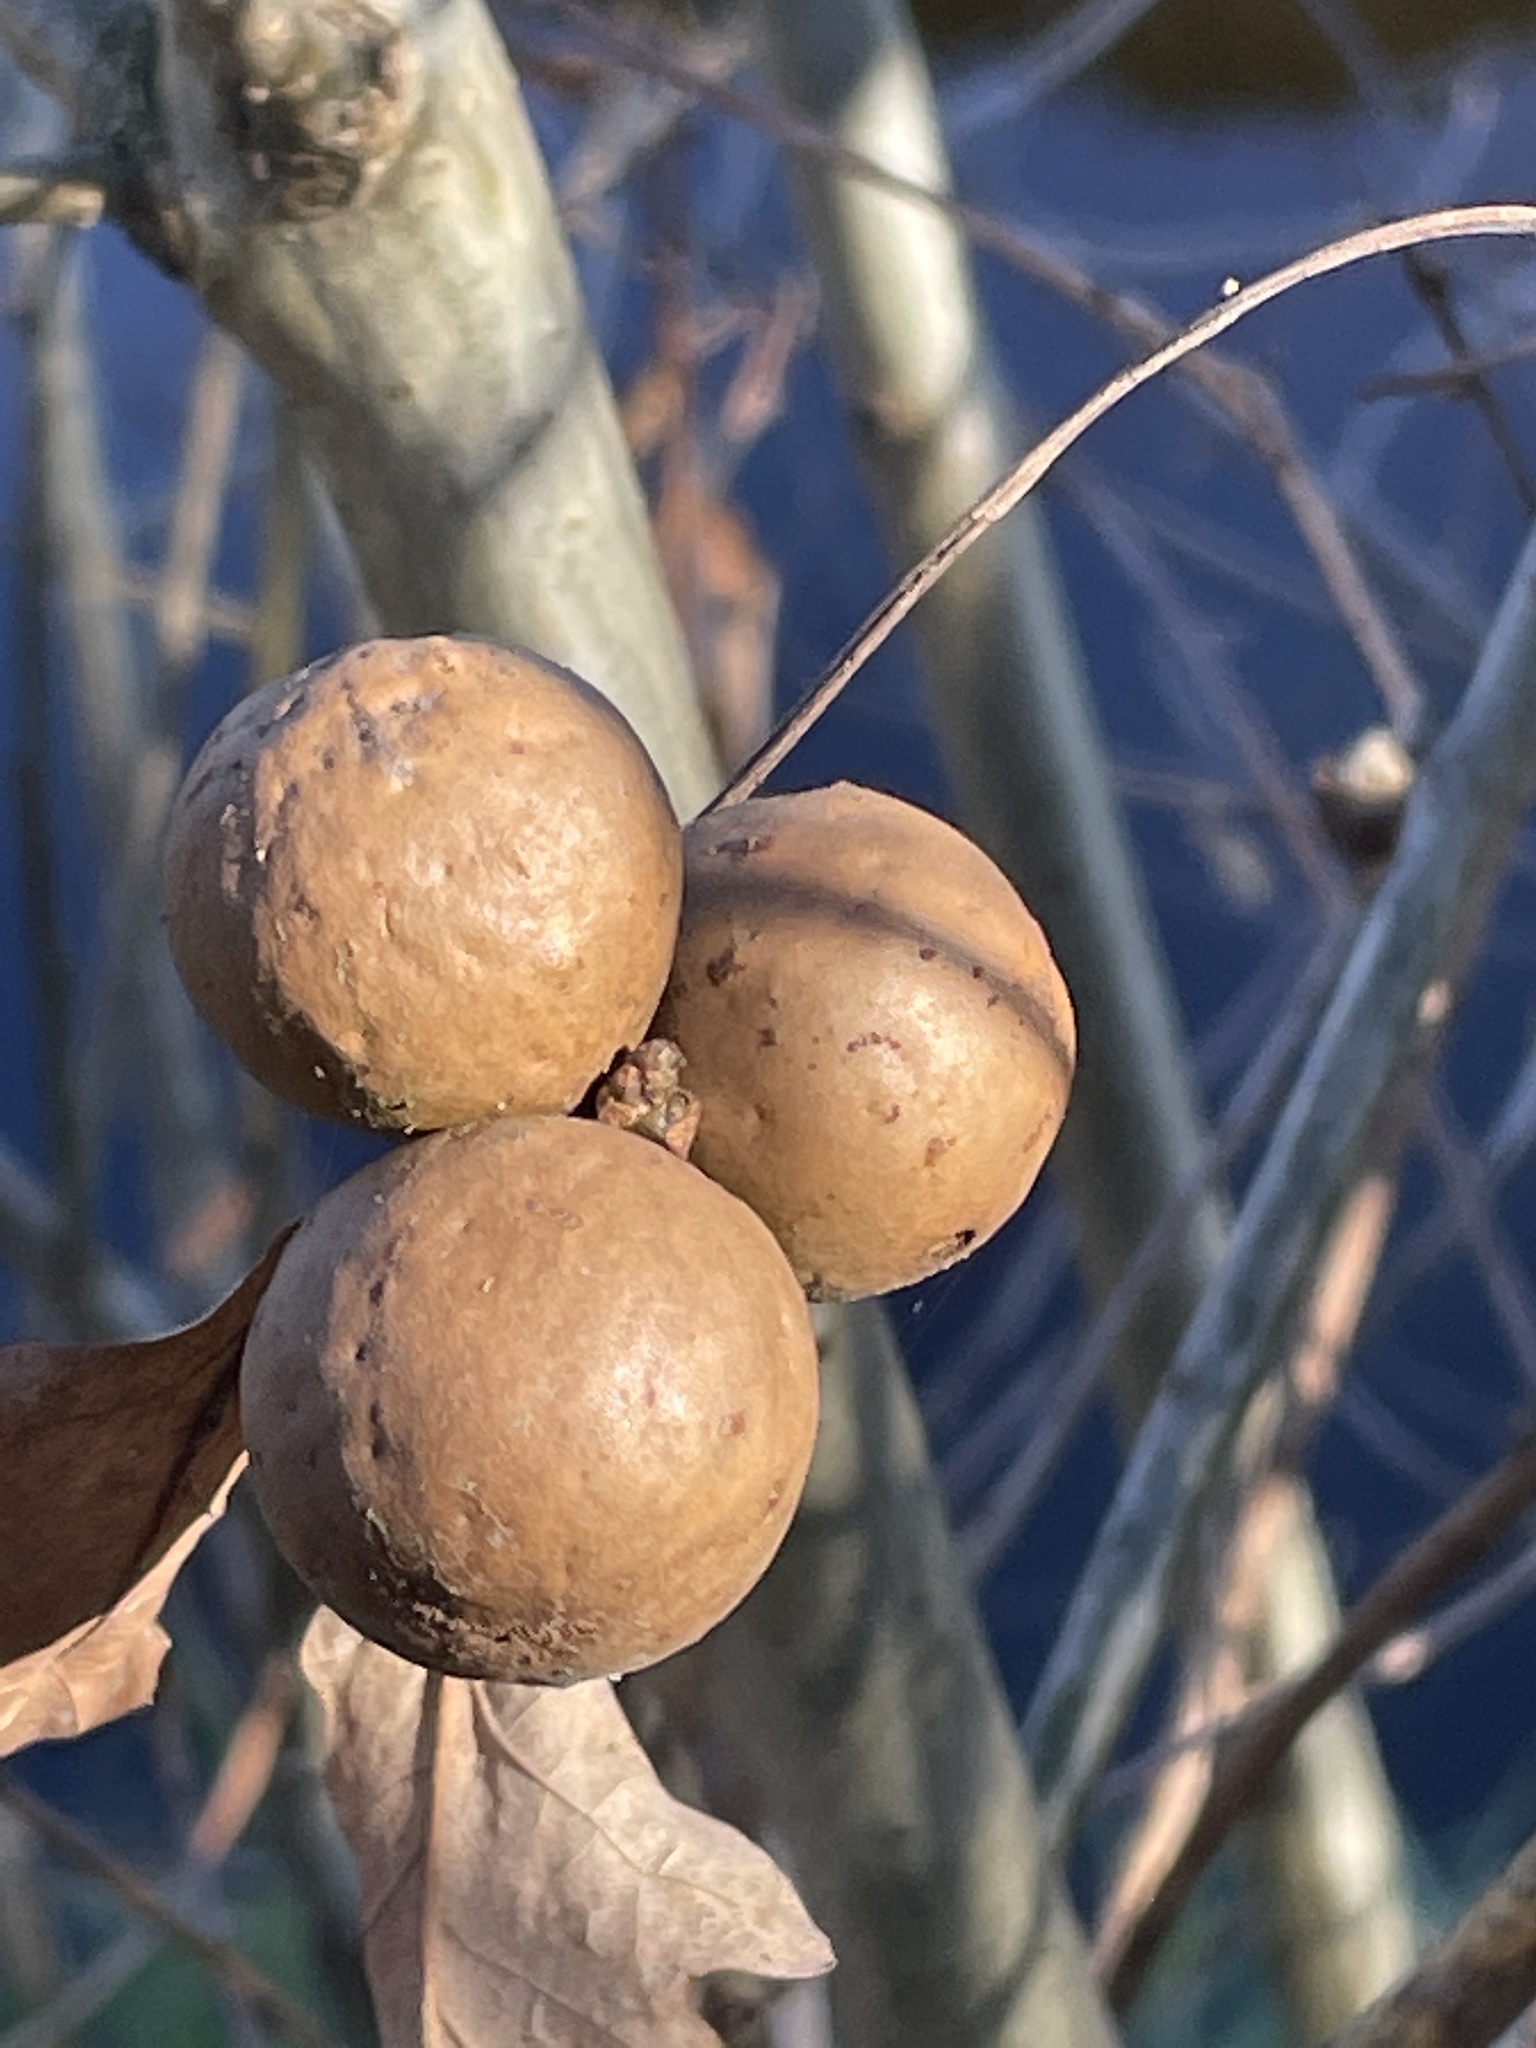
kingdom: Animalia
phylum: Arthropoda
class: Insecta
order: Hymenoptera
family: Cynipidae
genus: Andricus
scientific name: Andricus kollari
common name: Marble gall
